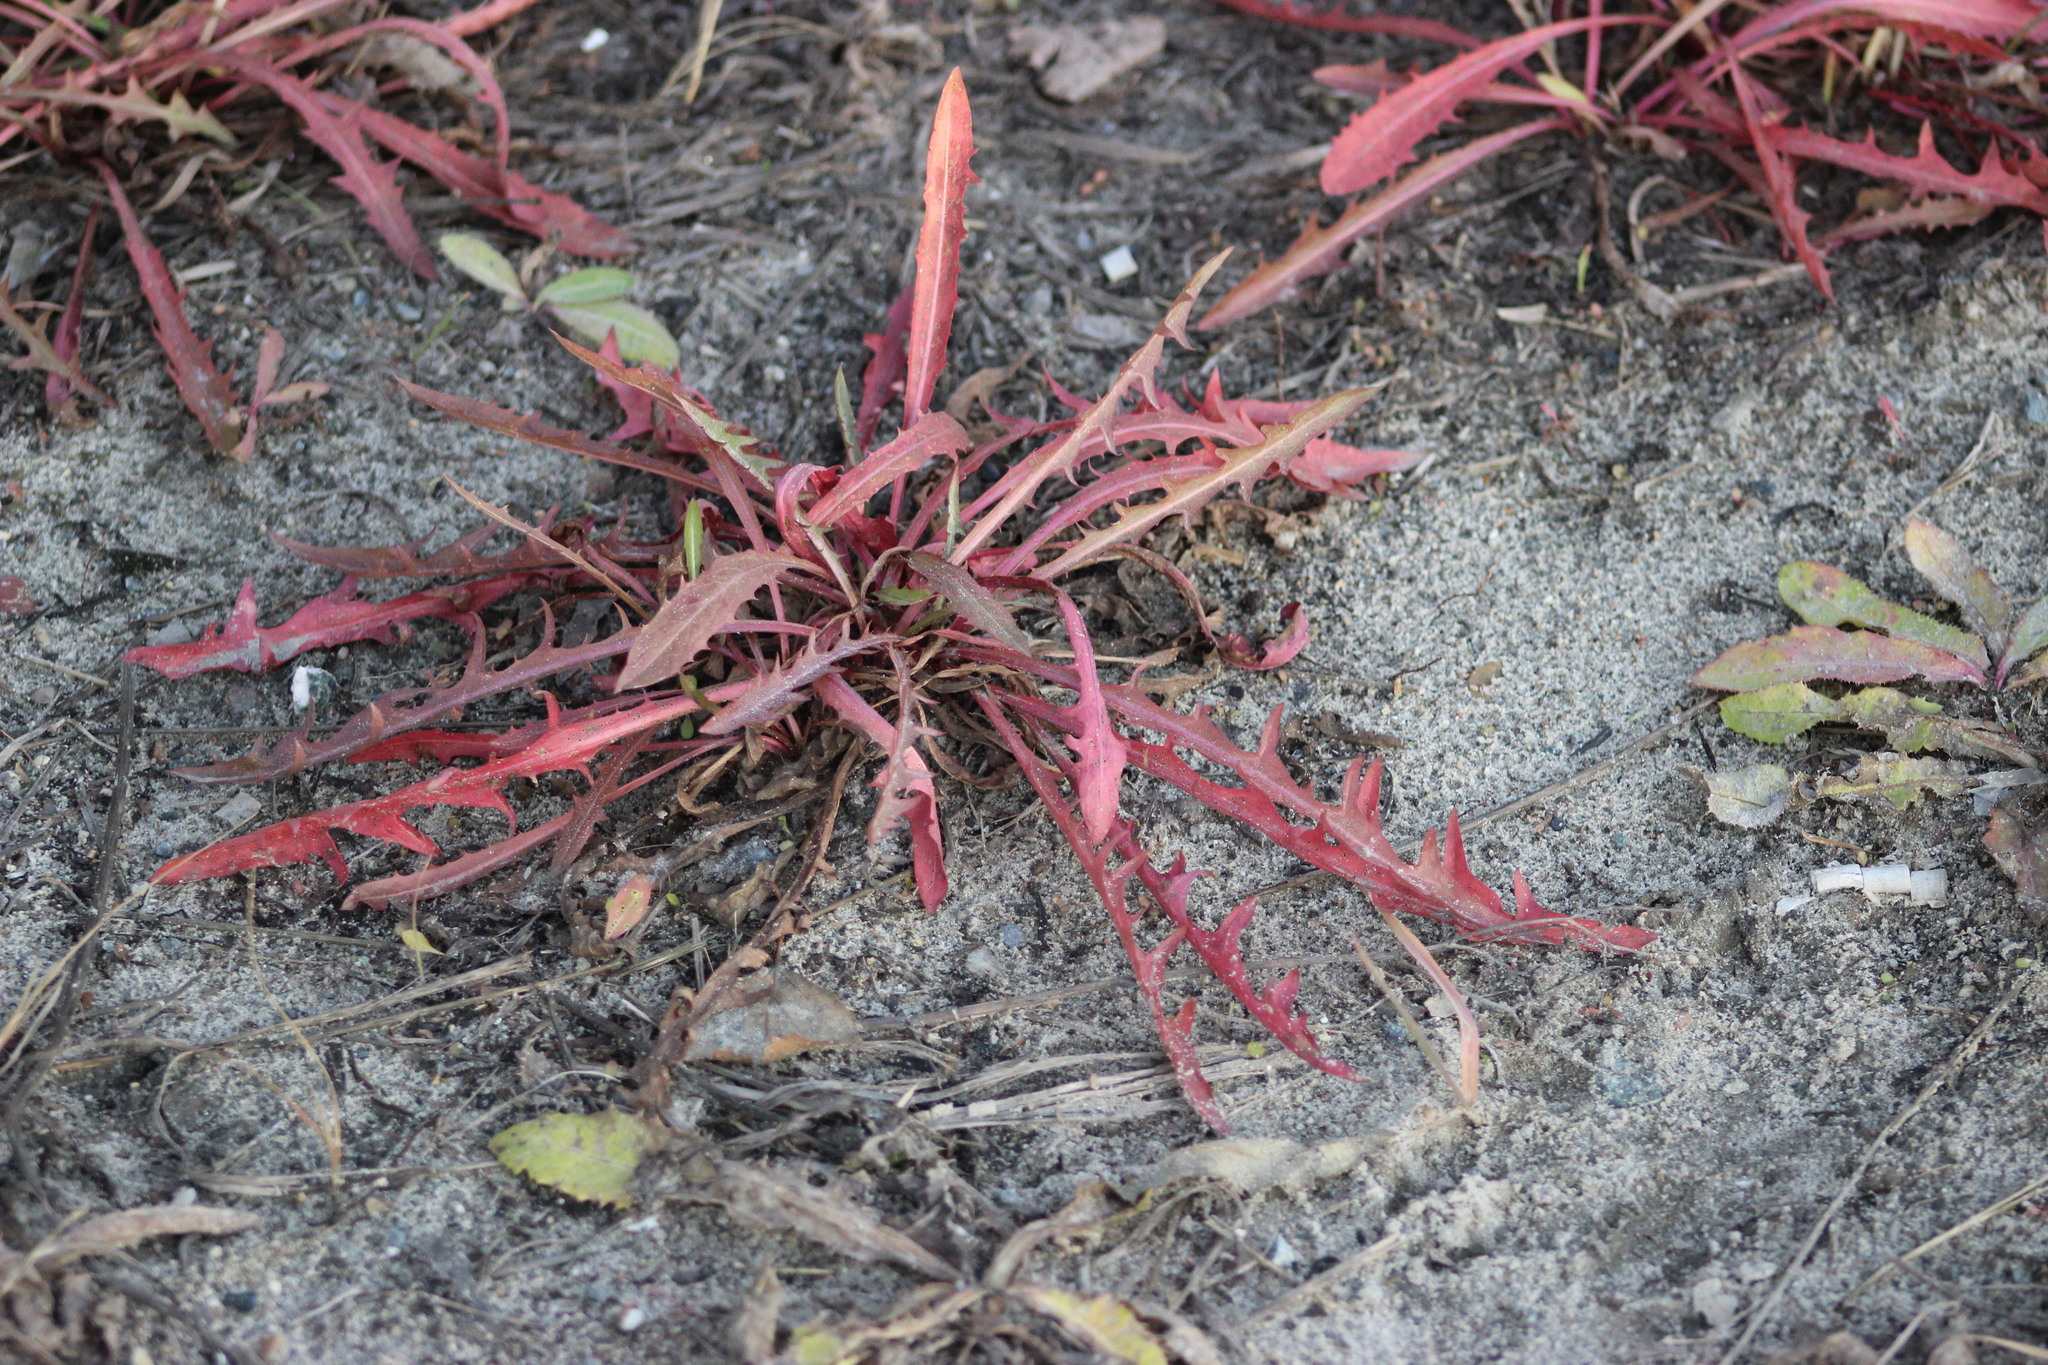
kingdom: Plantae
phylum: Tracheophyta
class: Magnoliopsida
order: Asterales
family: Asteraceae
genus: Taraxacum
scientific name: Taraxacum officinale
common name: Common dandelion
